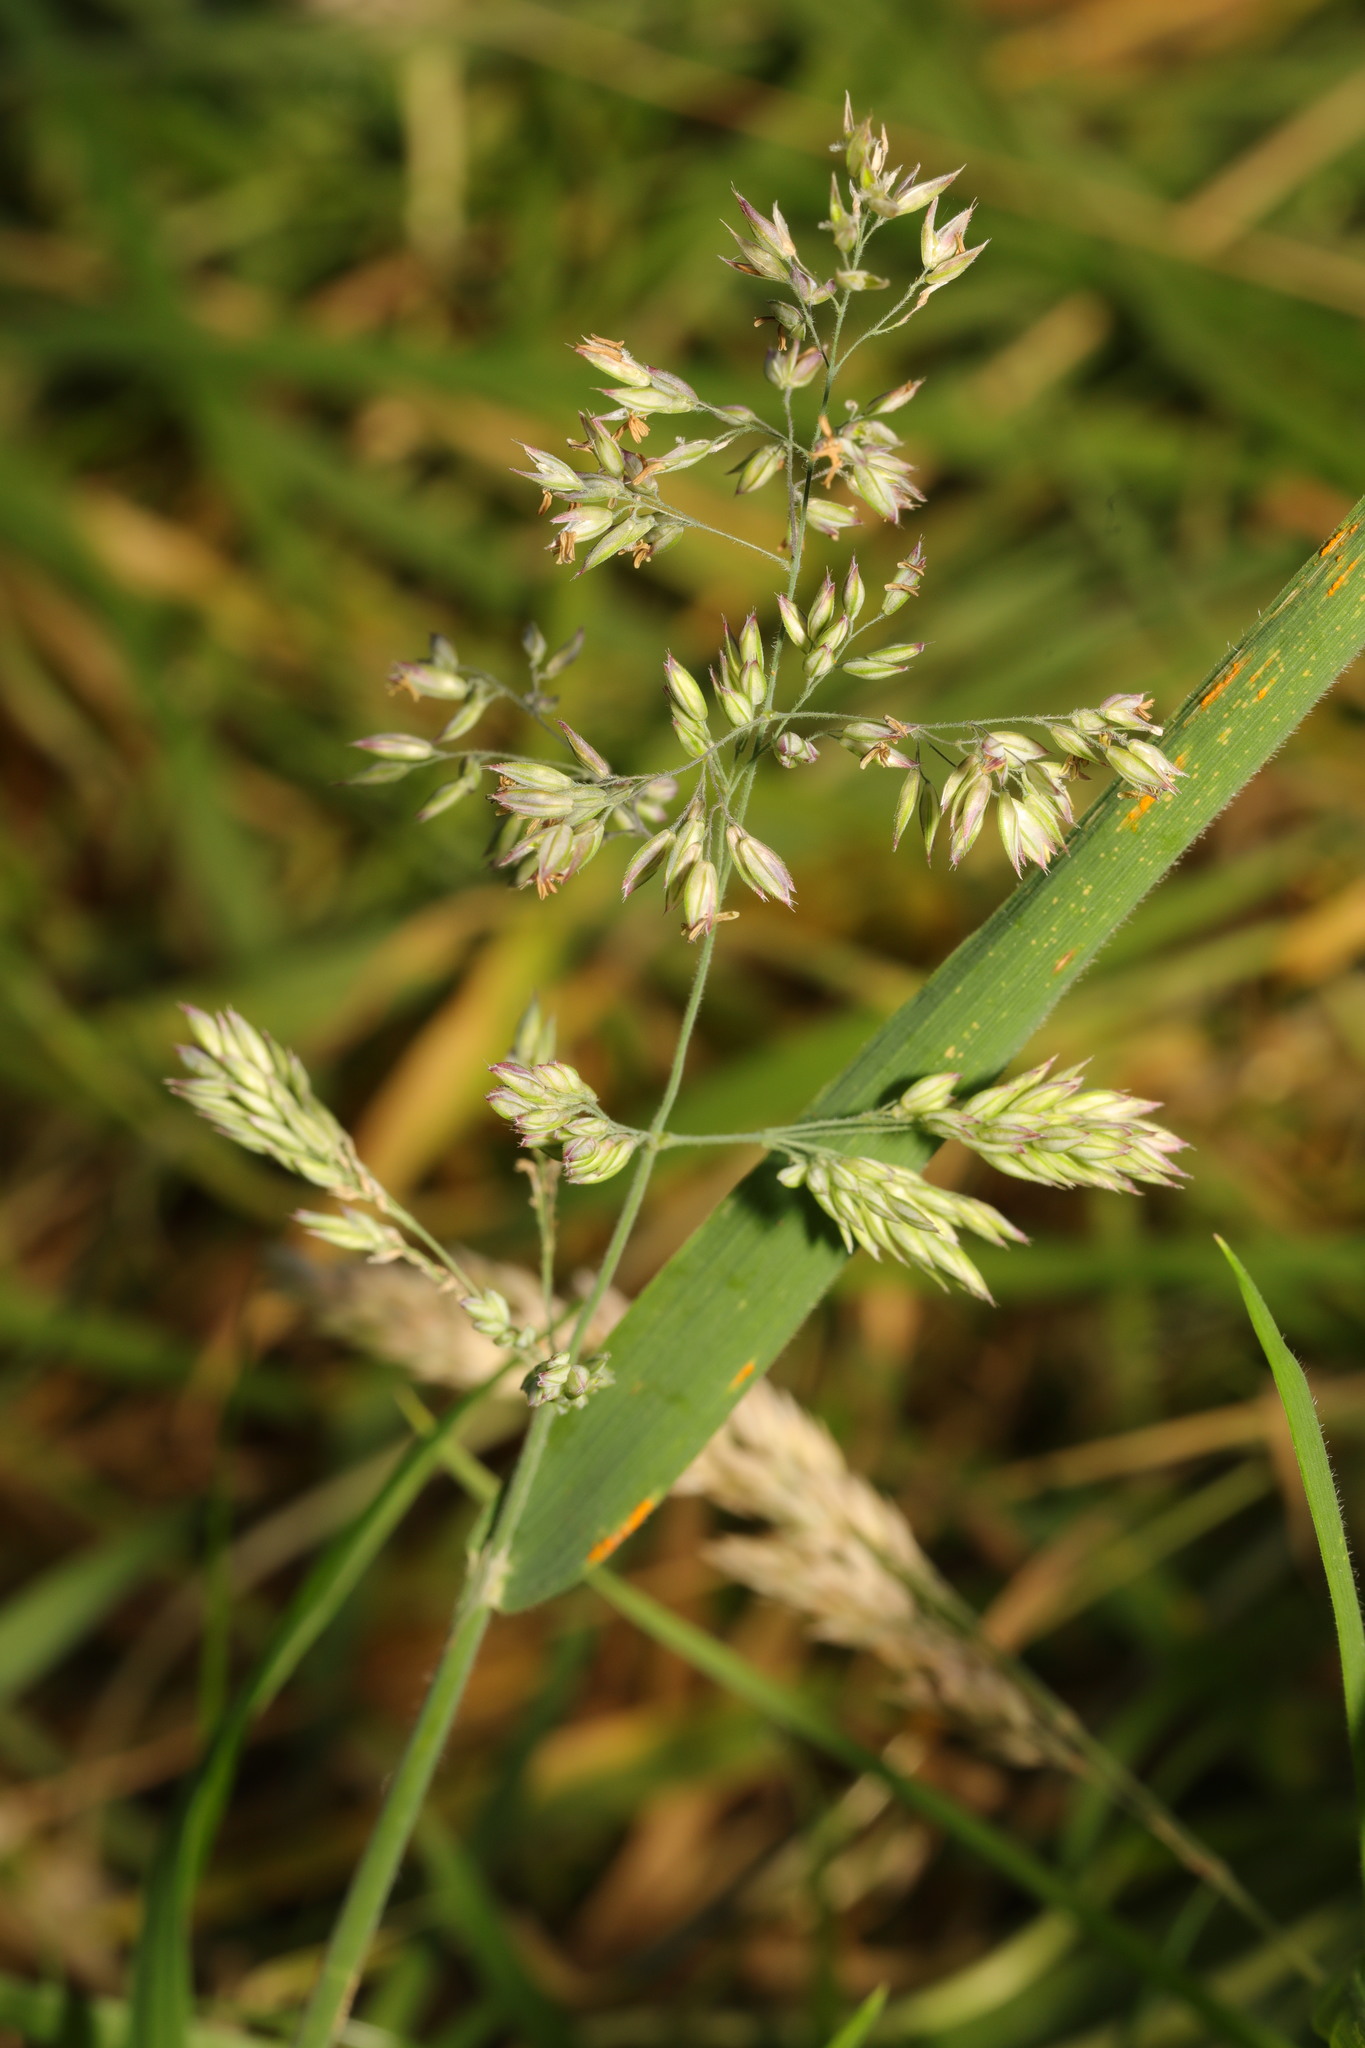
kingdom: Plantae
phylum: Tracheophyta
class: Liliopsida
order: Poales
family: Poaceae
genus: Holcus
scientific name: Holcus lanatus
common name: Yorkshire-fog
